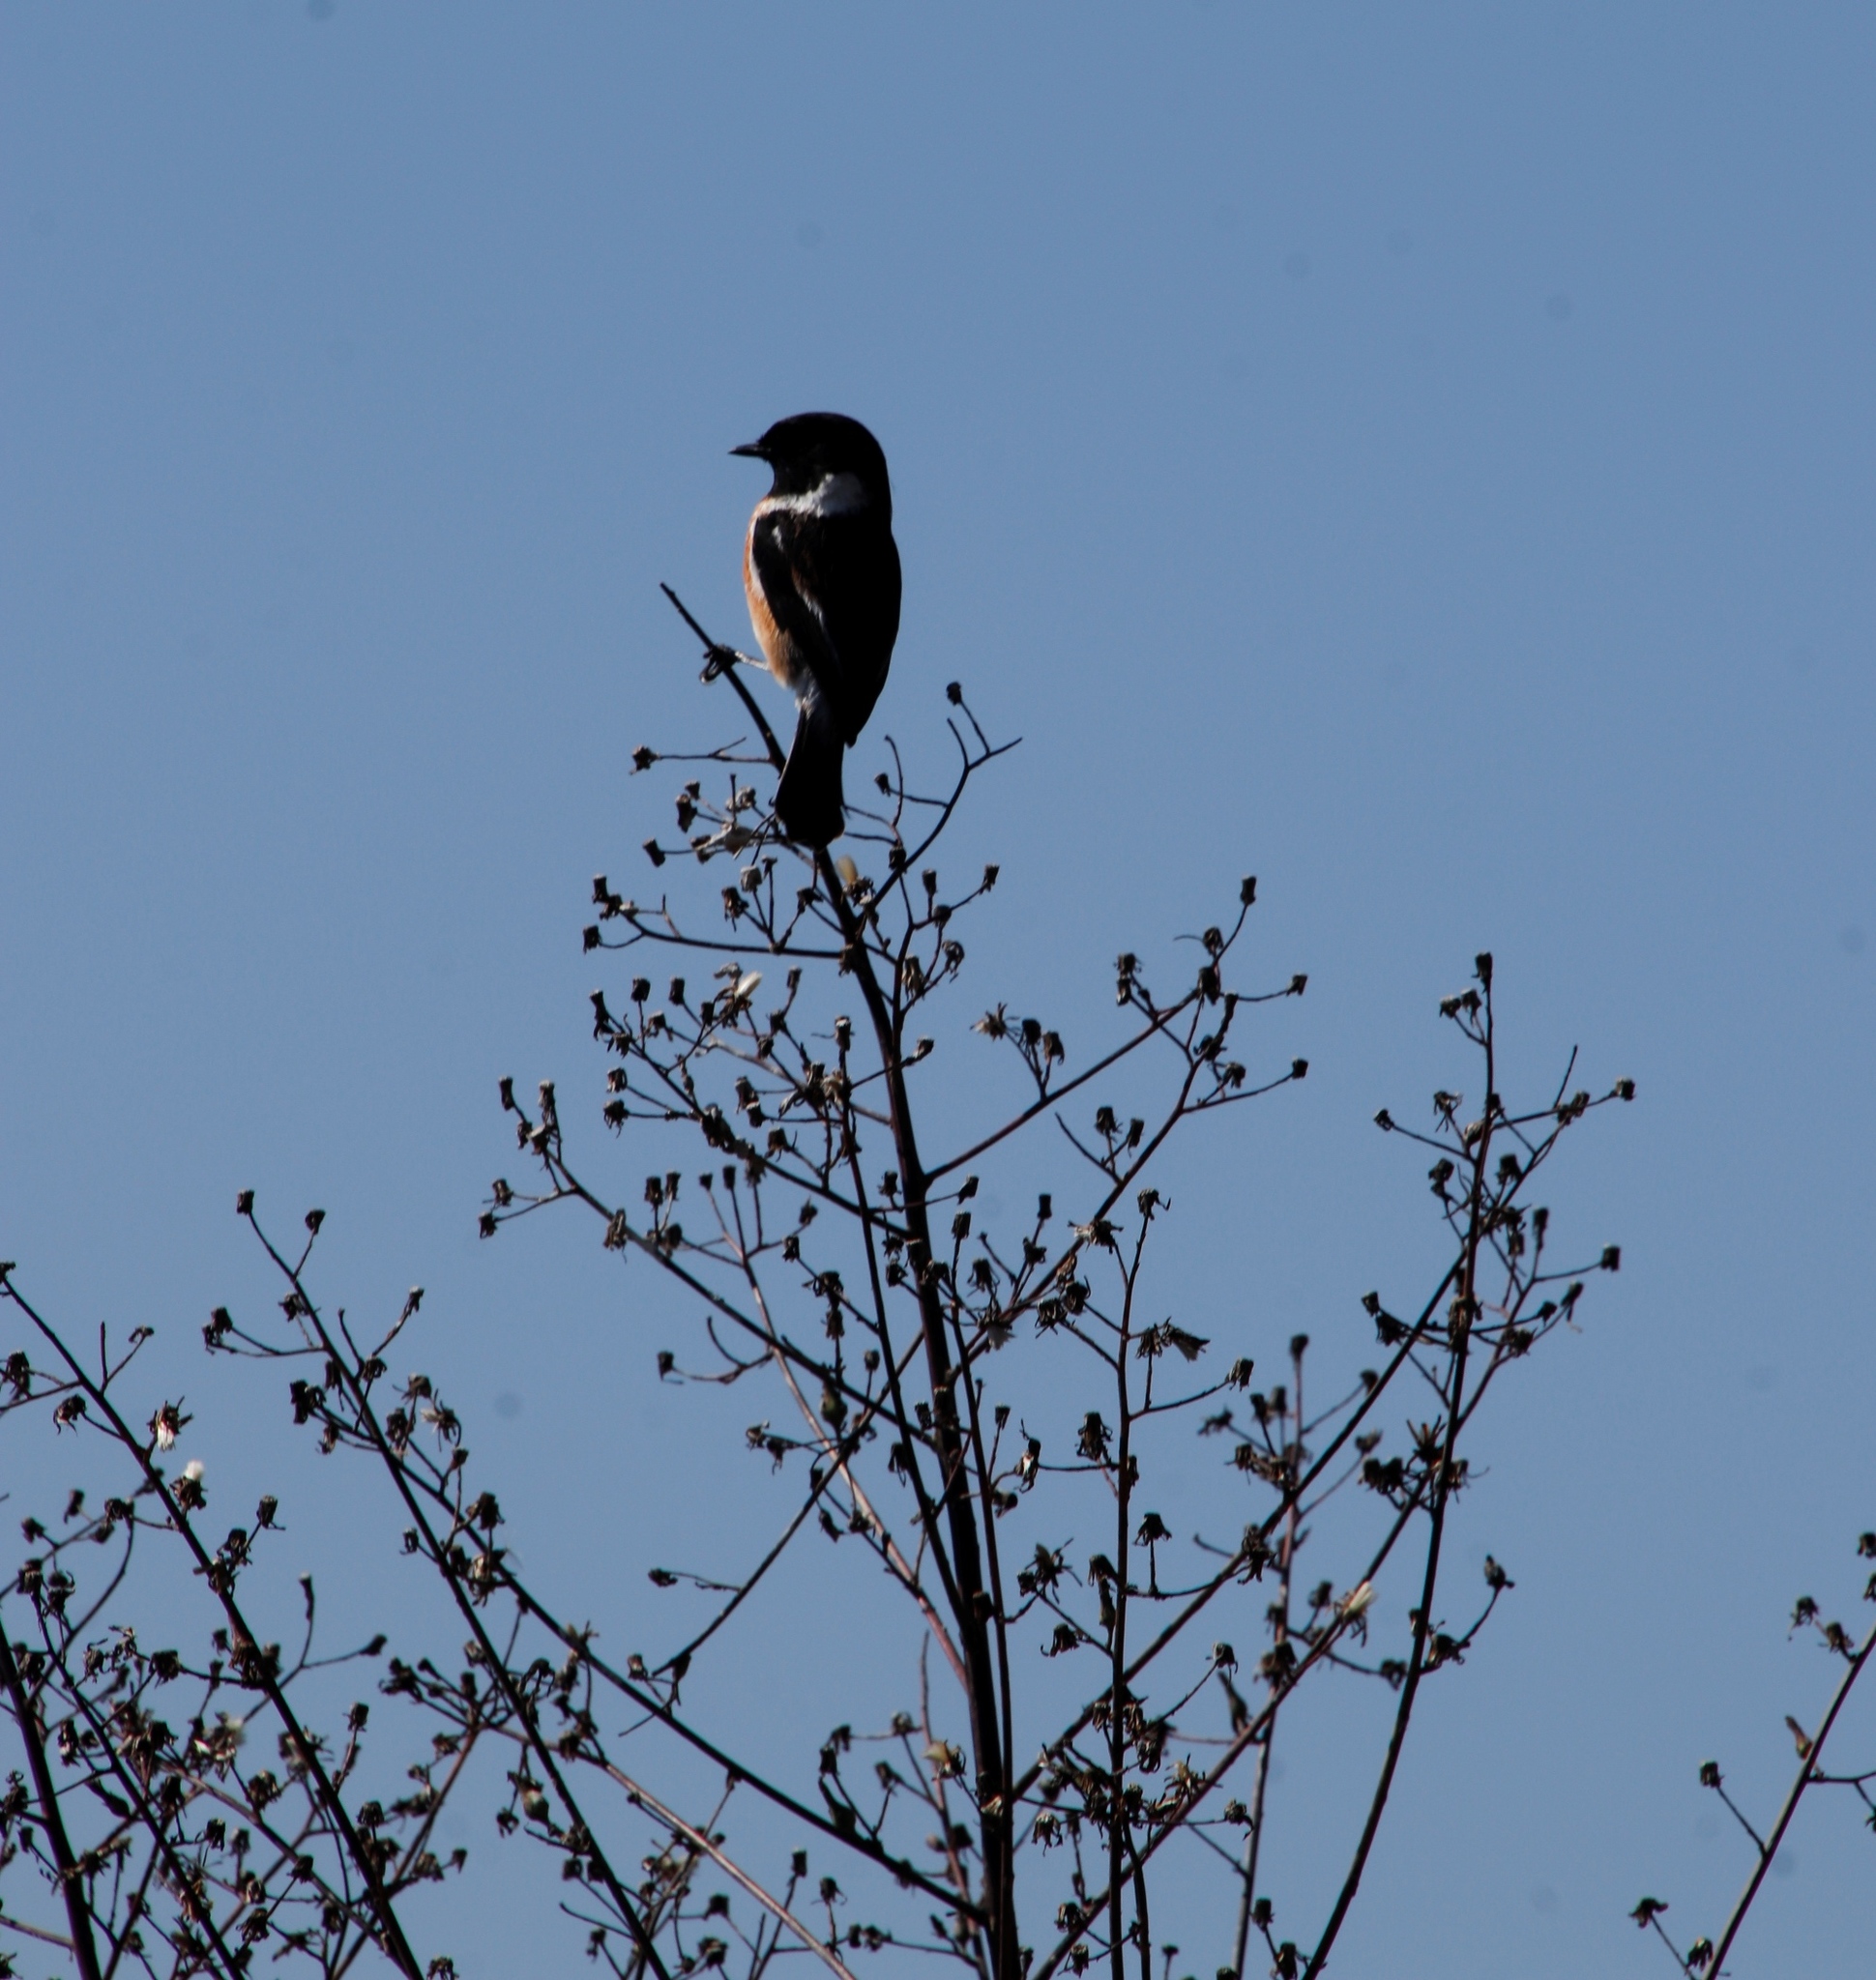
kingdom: Animalia
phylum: Chordata
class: Aves
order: Passeriformes
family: Muscicapidae
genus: Saxicola
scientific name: Saxicola torquatus
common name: African stonechat
